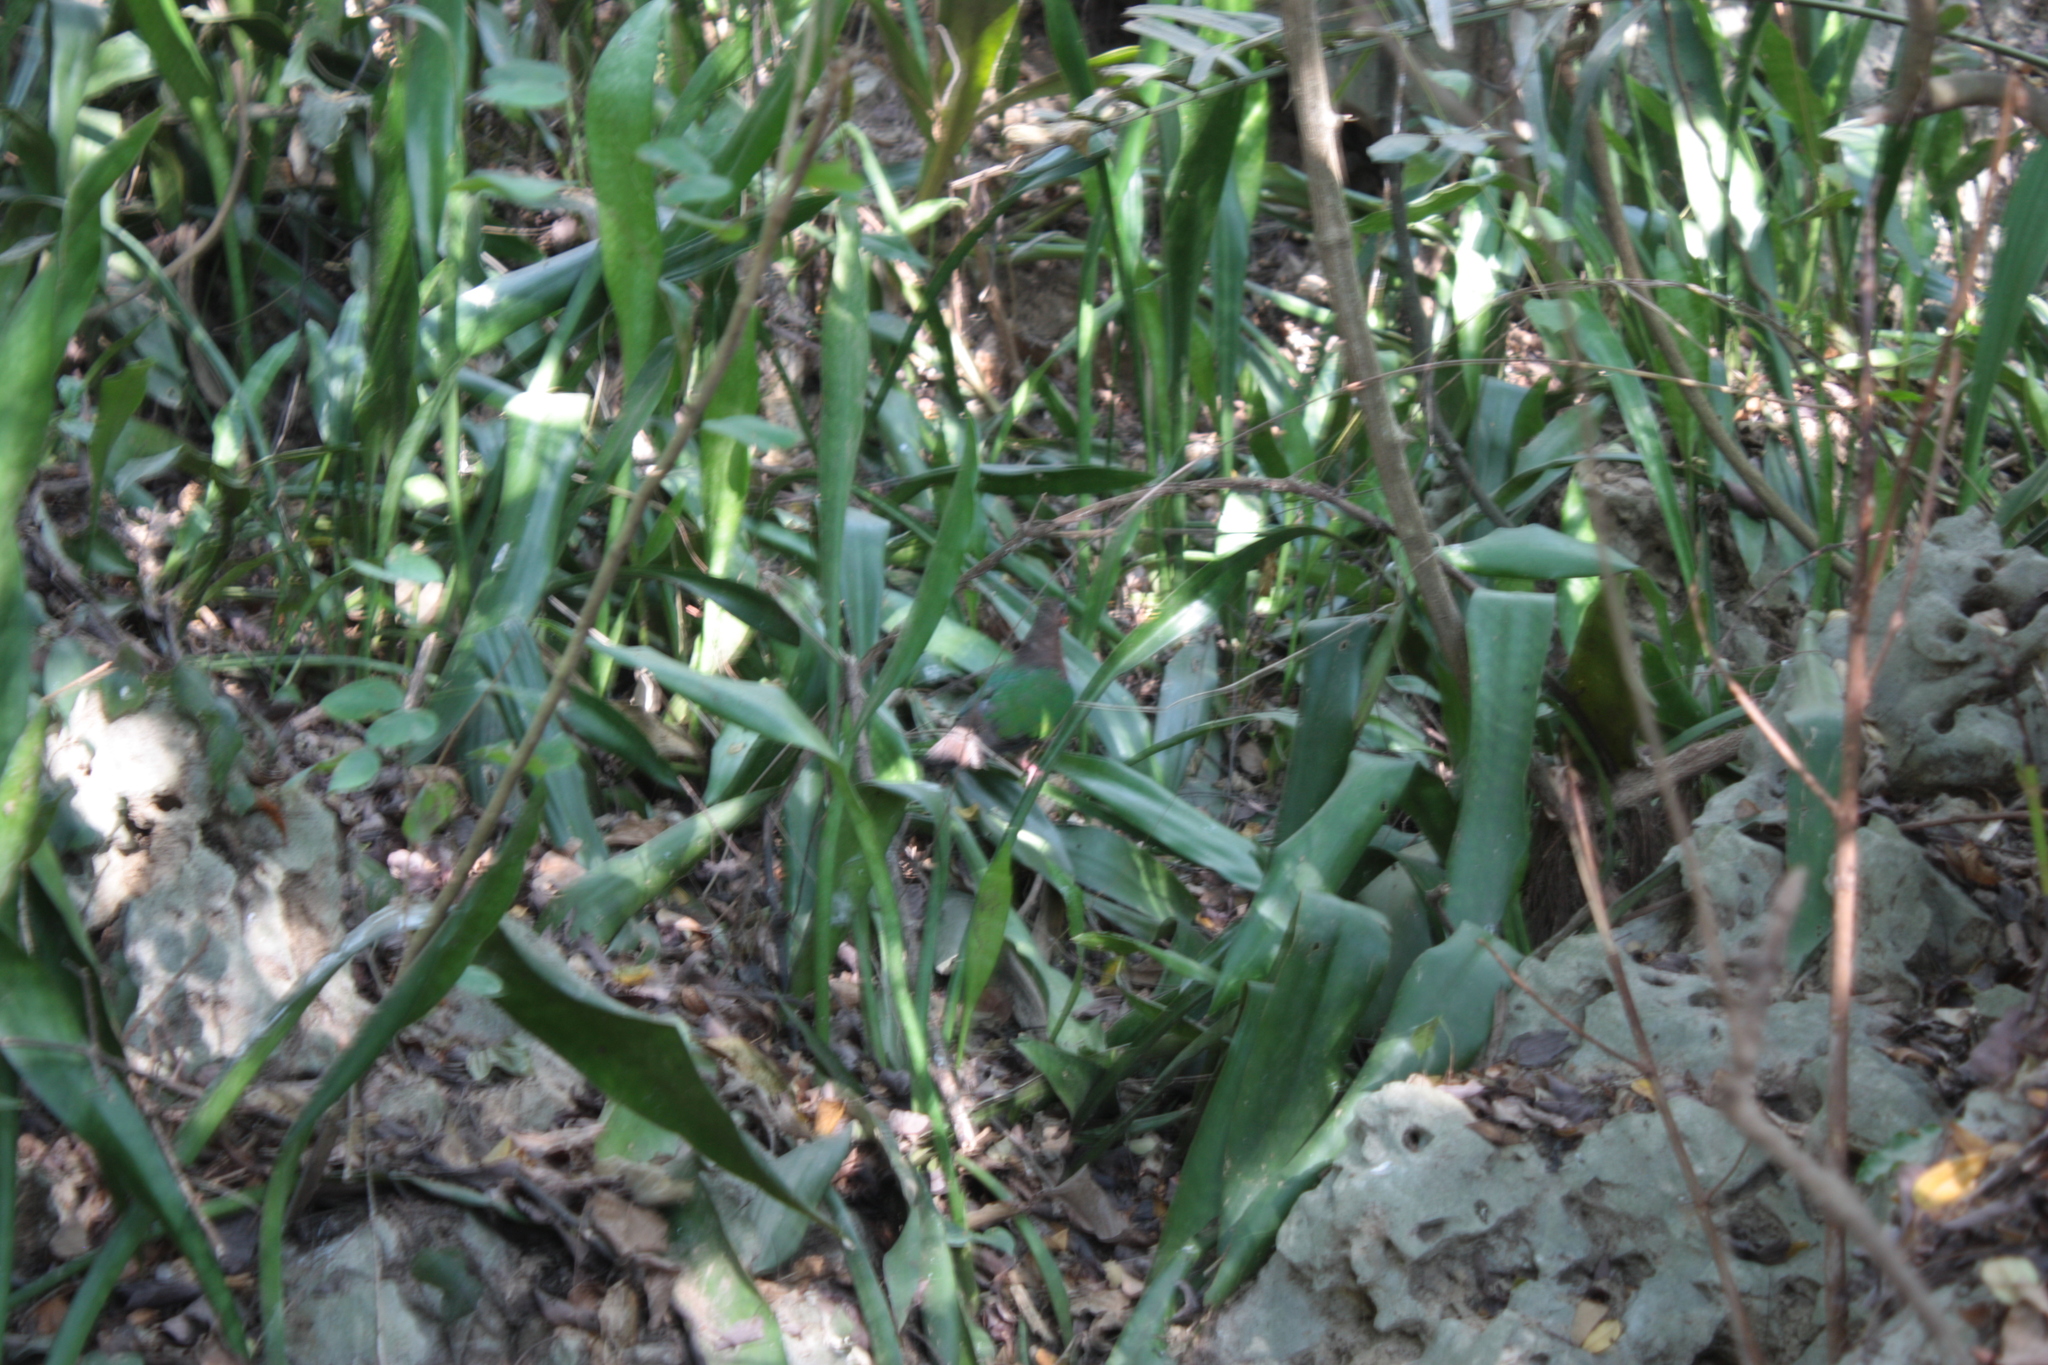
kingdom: Animalia
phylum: Chordata
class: Aves
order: Columbiformes
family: Columbidae
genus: Chalcophaps
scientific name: Chalcophaps indica
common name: Common emerald dove
